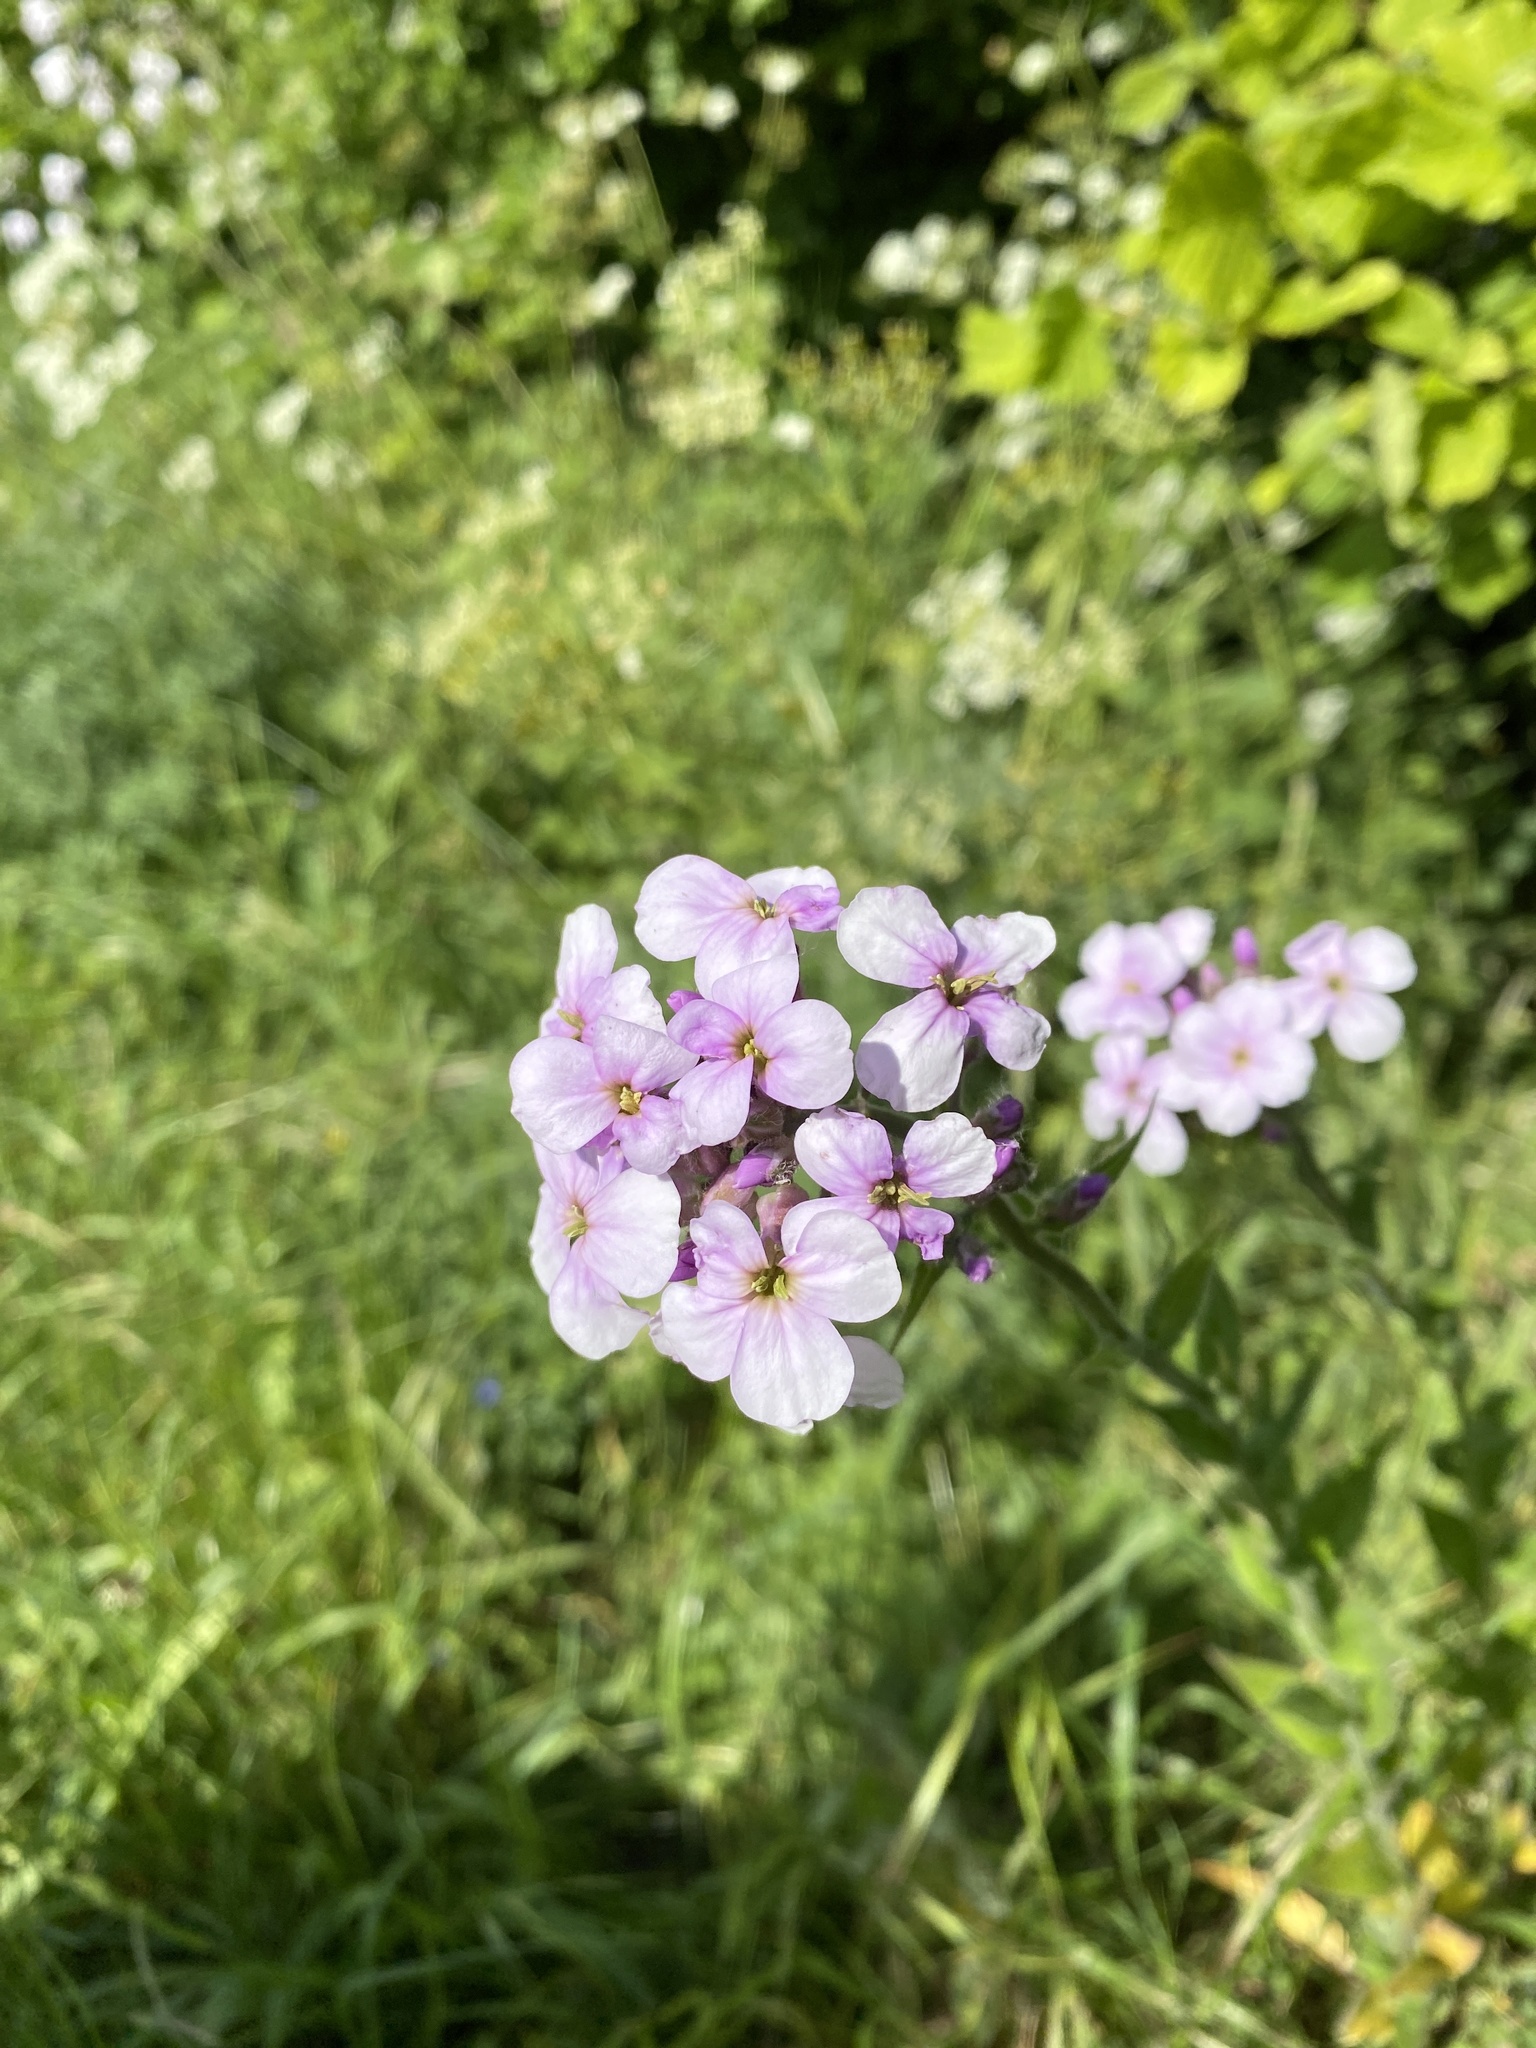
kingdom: Plantae
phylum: Tracheophyta
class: Magnoliopsida
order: Brassicales
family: Brassicaceae
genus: Hesperis
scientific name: Hesperis matronalis
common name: Dame's-violet
